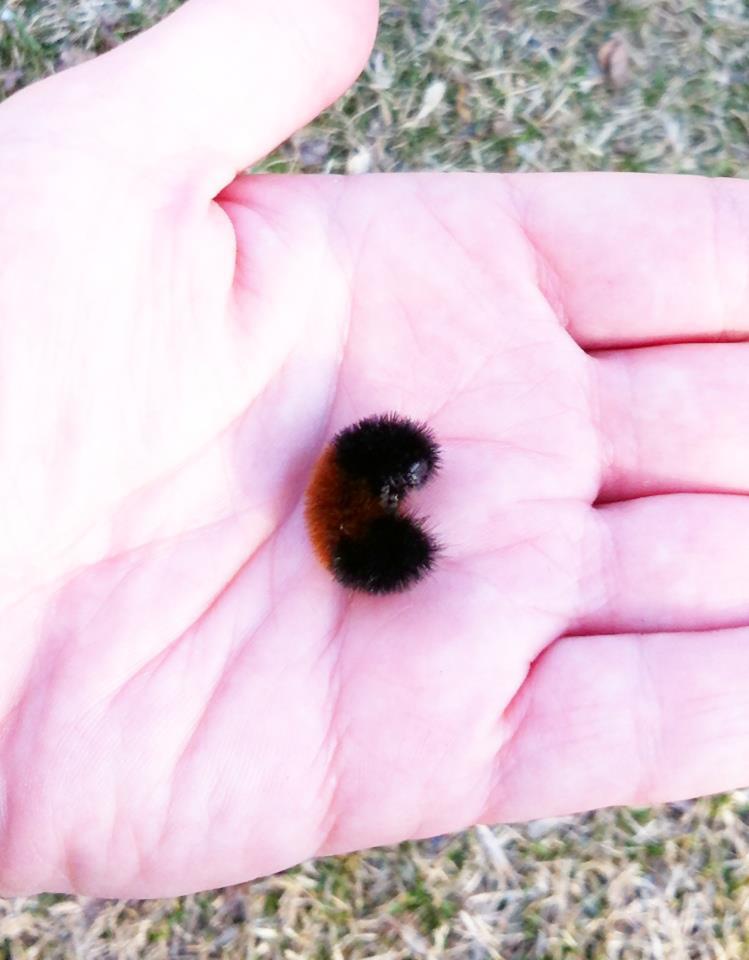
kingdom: Animalia
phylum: Arthropoda
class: Insecta
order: Lepidoptera
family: Erebidae
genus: Pyrrharctia
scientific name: Pyrrharctia isabella
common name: Isabella tiger moth
